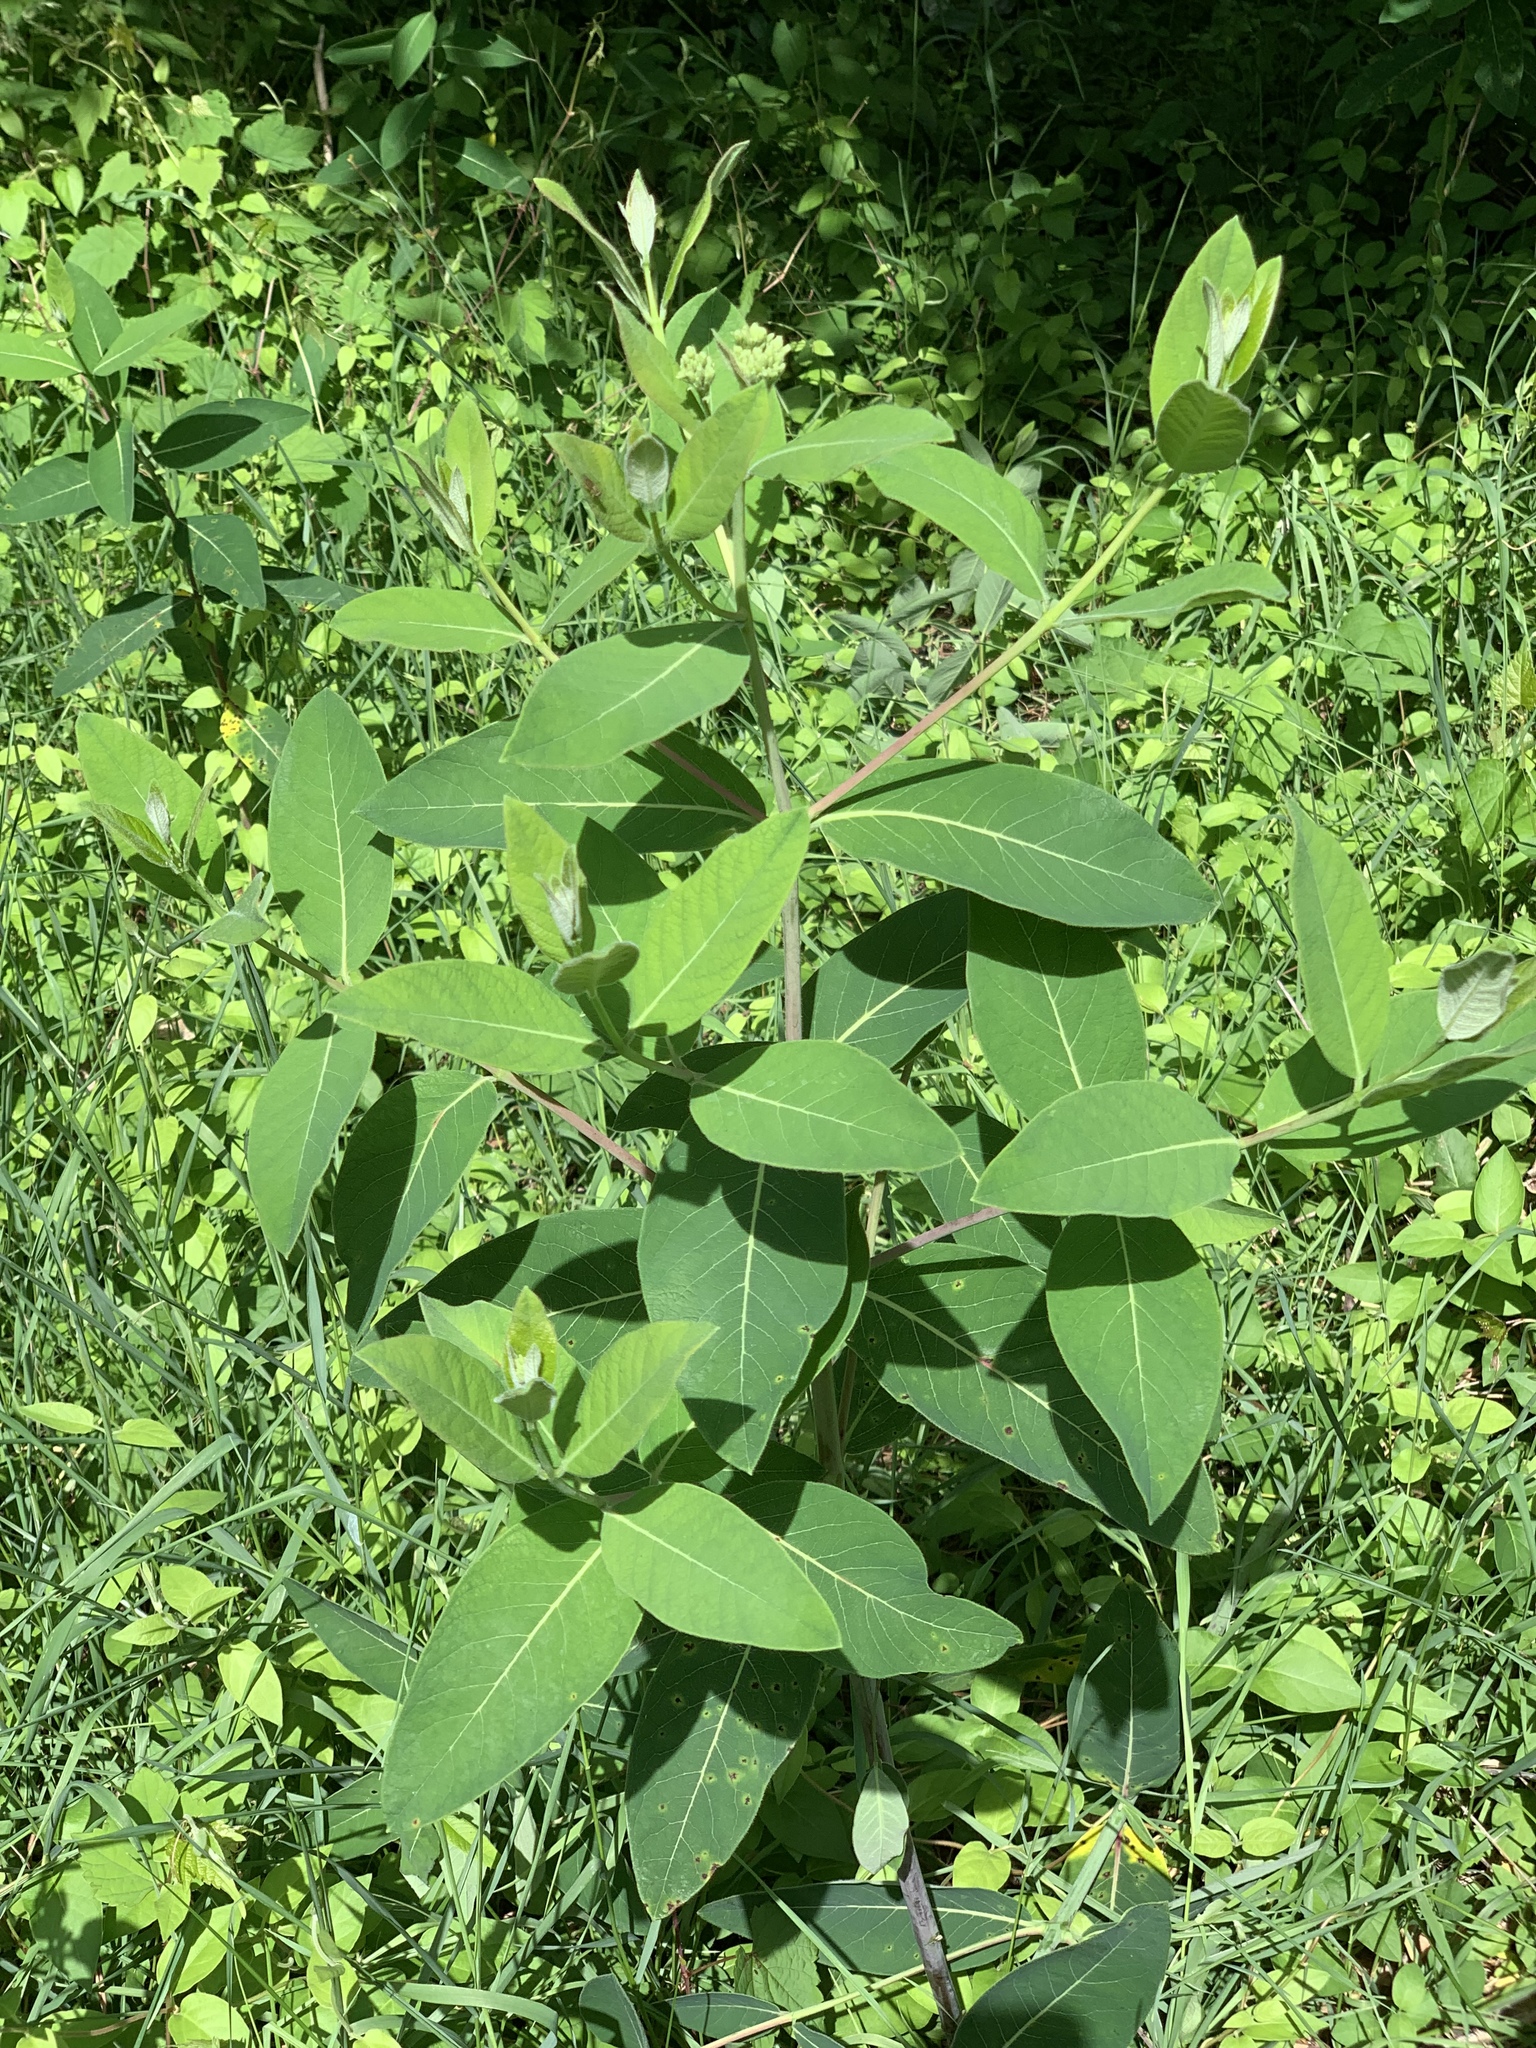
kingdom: Plantae
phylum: Tracheophyta
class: Magnoliopsida
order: Gentianales
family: Apocynaceae
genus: Apocynum
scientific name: Apocynum cannabinum
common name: Hemp dogbane
